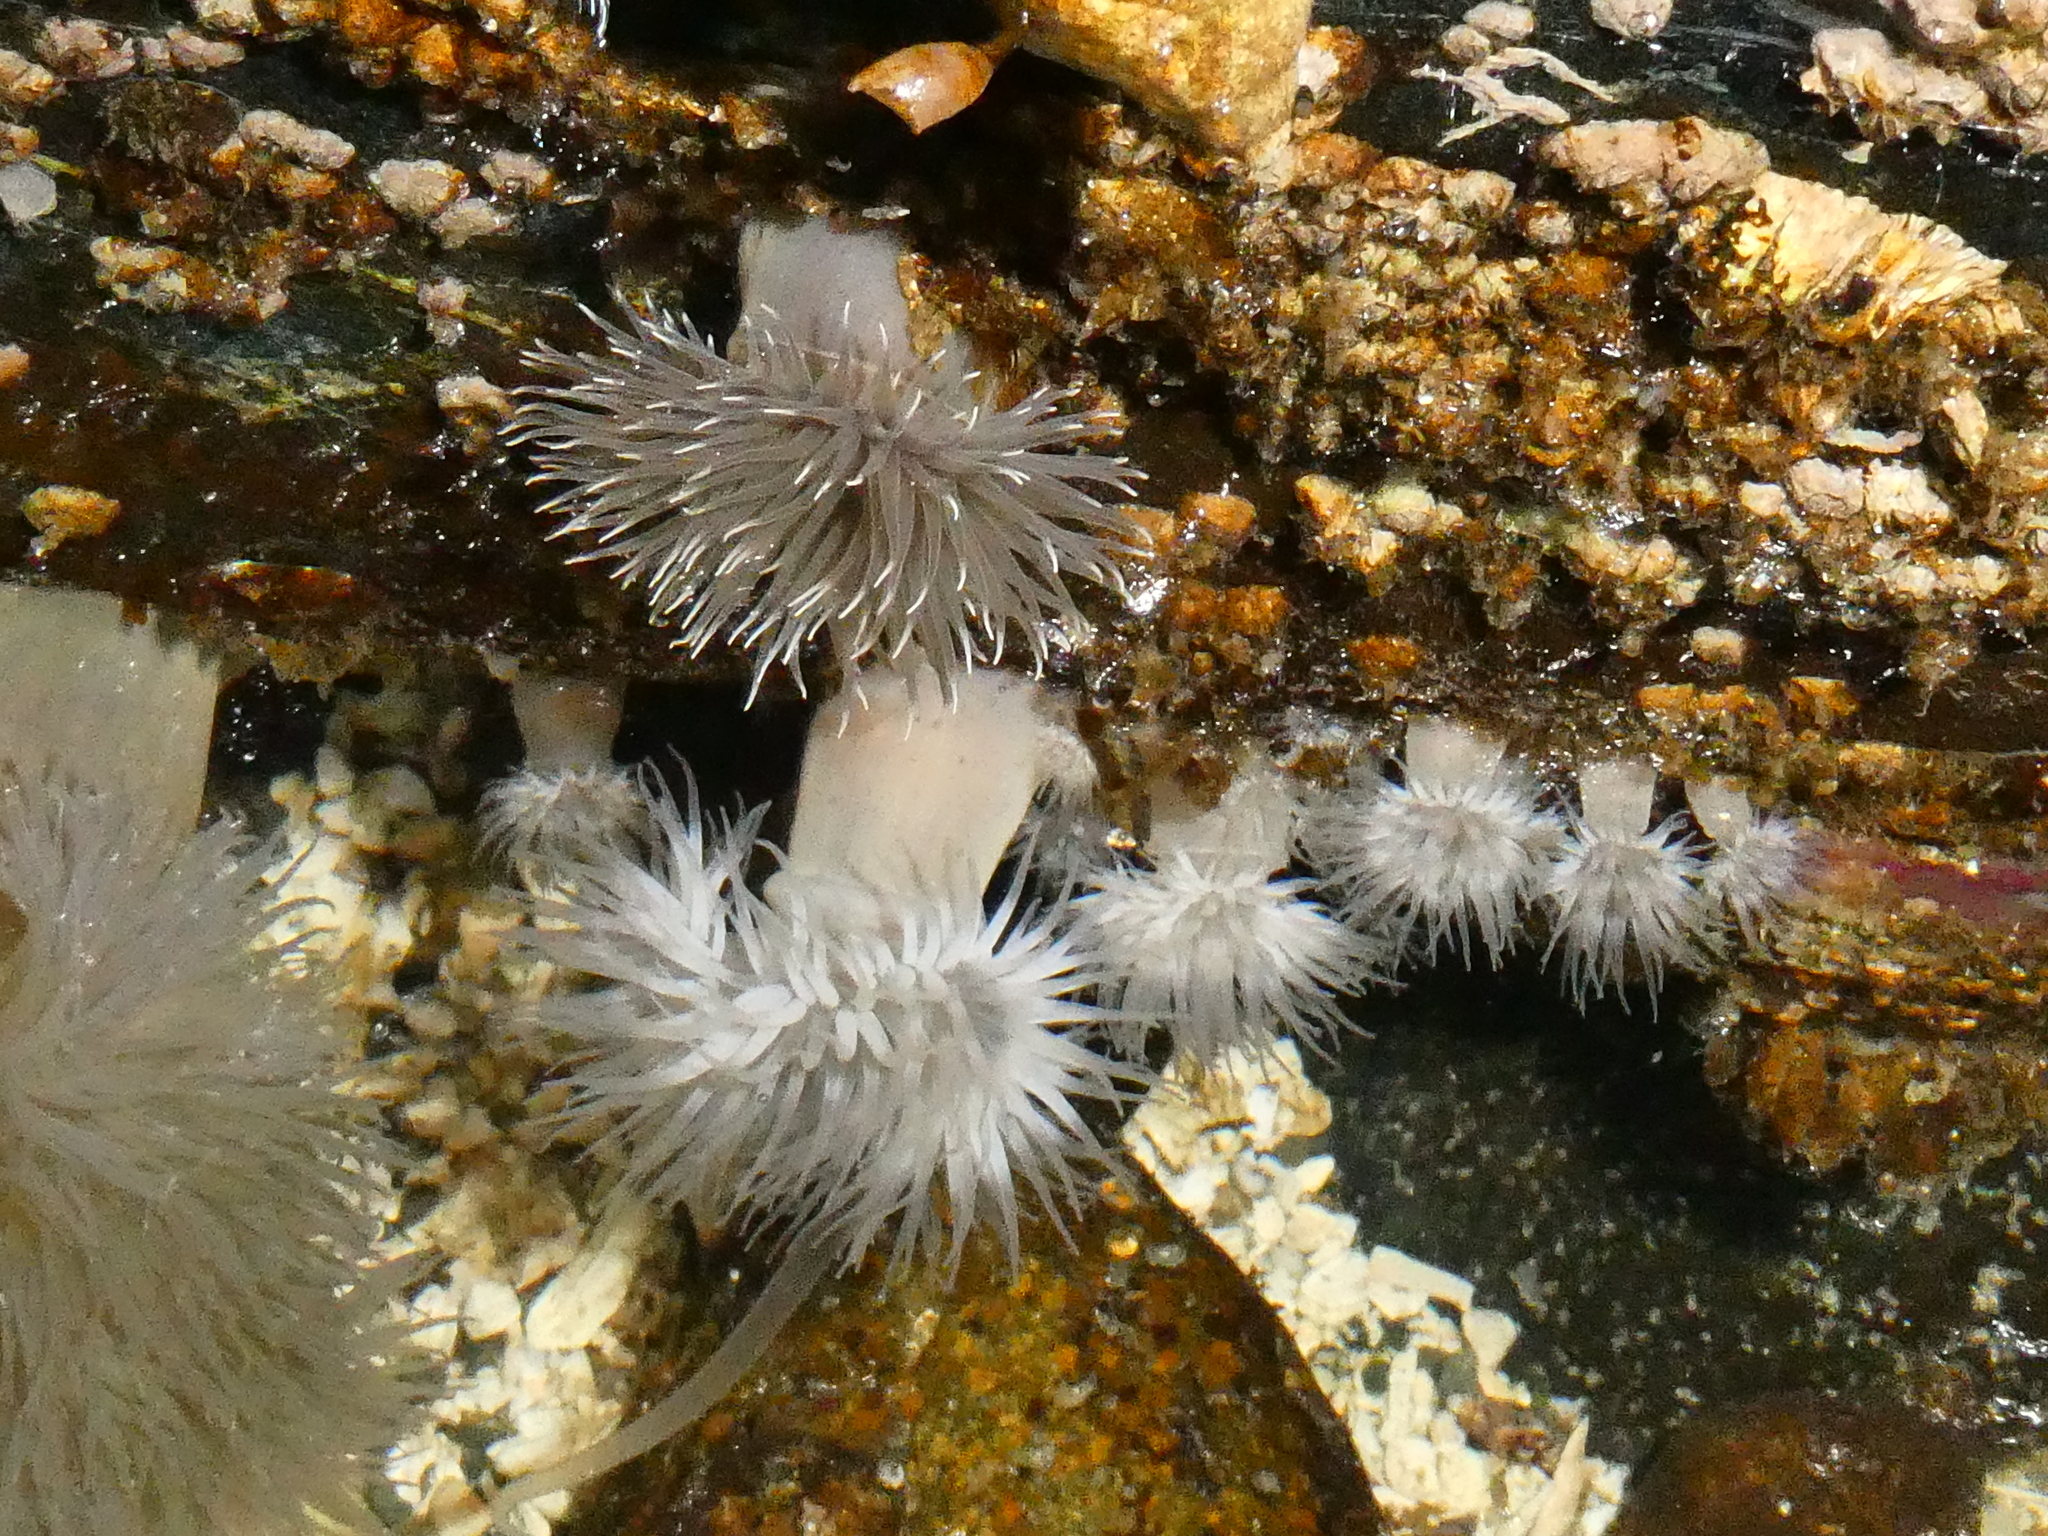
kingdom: Animalia
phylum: Cnidaria
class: Anthozoa
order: Actiniaria
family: Metridiidae
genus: Metridium
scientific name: Metridium senile
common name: Clonal plumose anemone
